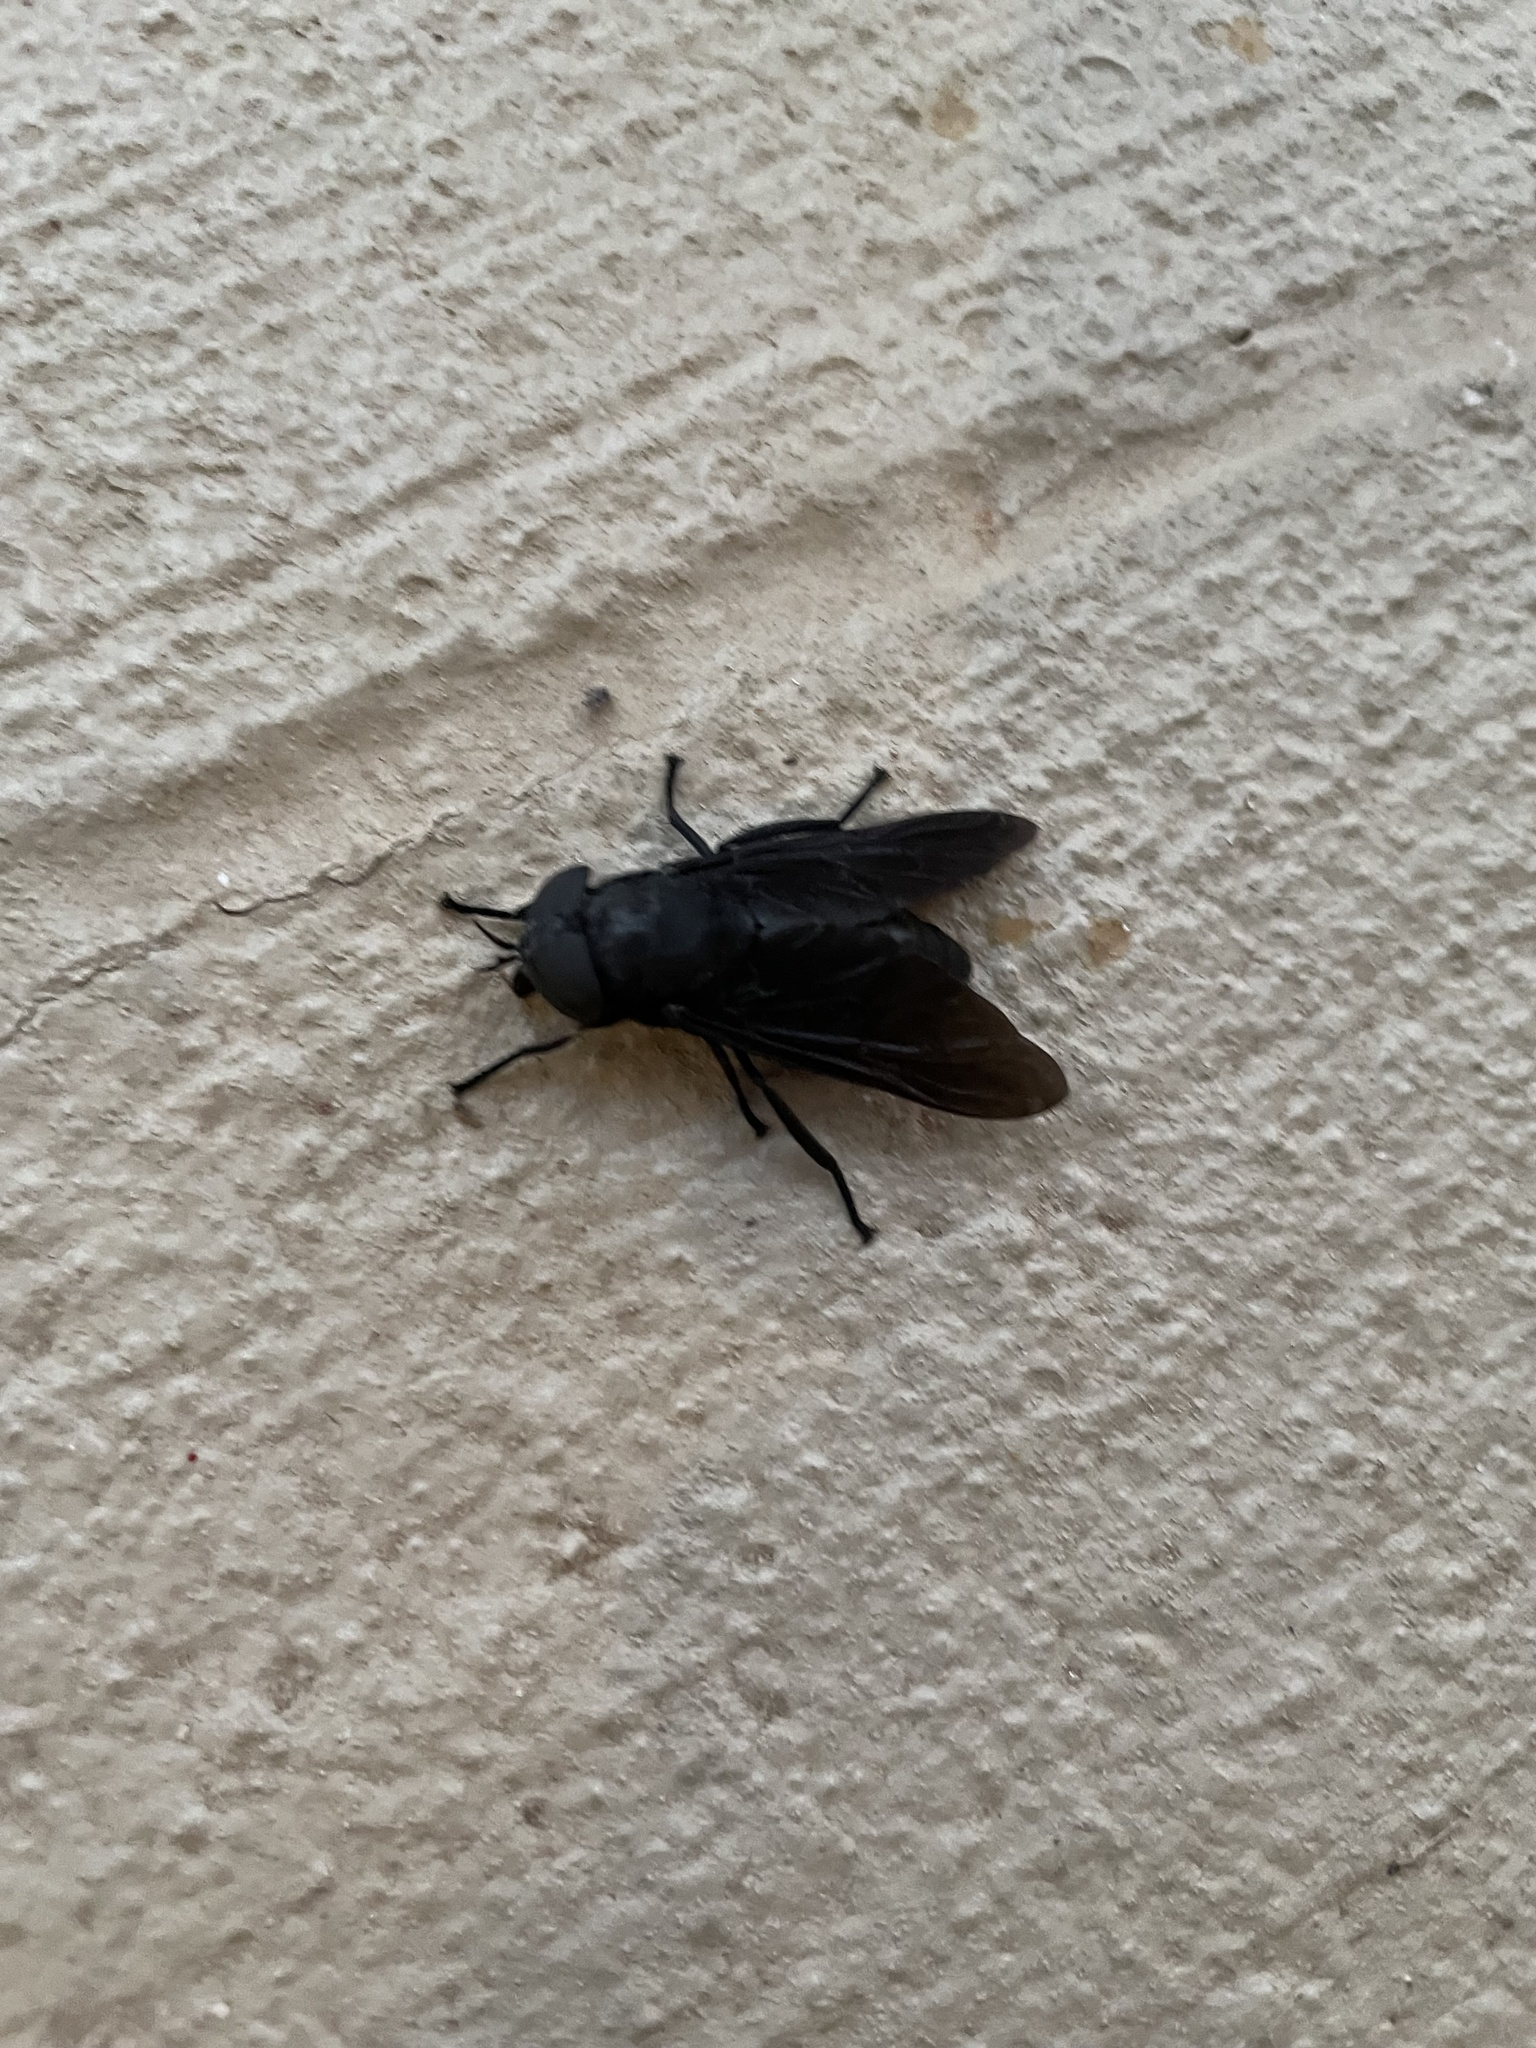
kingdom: Animalia
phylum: Arthropoda
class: Insecta
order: Diptera
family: Tabanidae
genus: Tabanus
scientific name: Tabanus atratus
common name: Black horse fly
